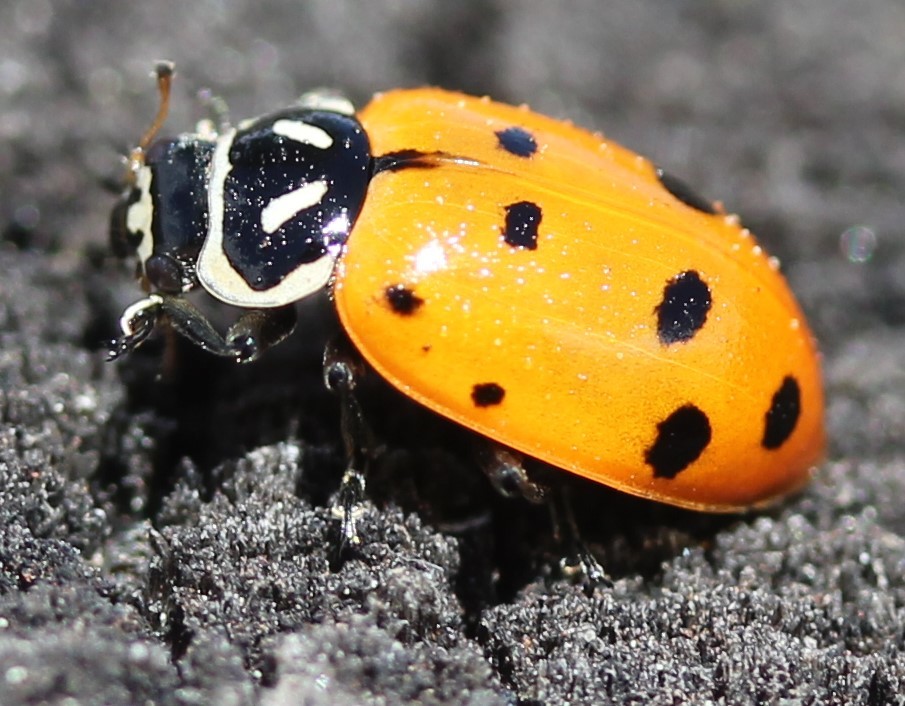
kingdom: Animalia
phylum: Arthropoda
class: Insecta
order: Coleoptera
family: Coccinellidae
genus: Hippodamia
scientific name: Hippodamia convergens
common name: Convergent lady beetle
